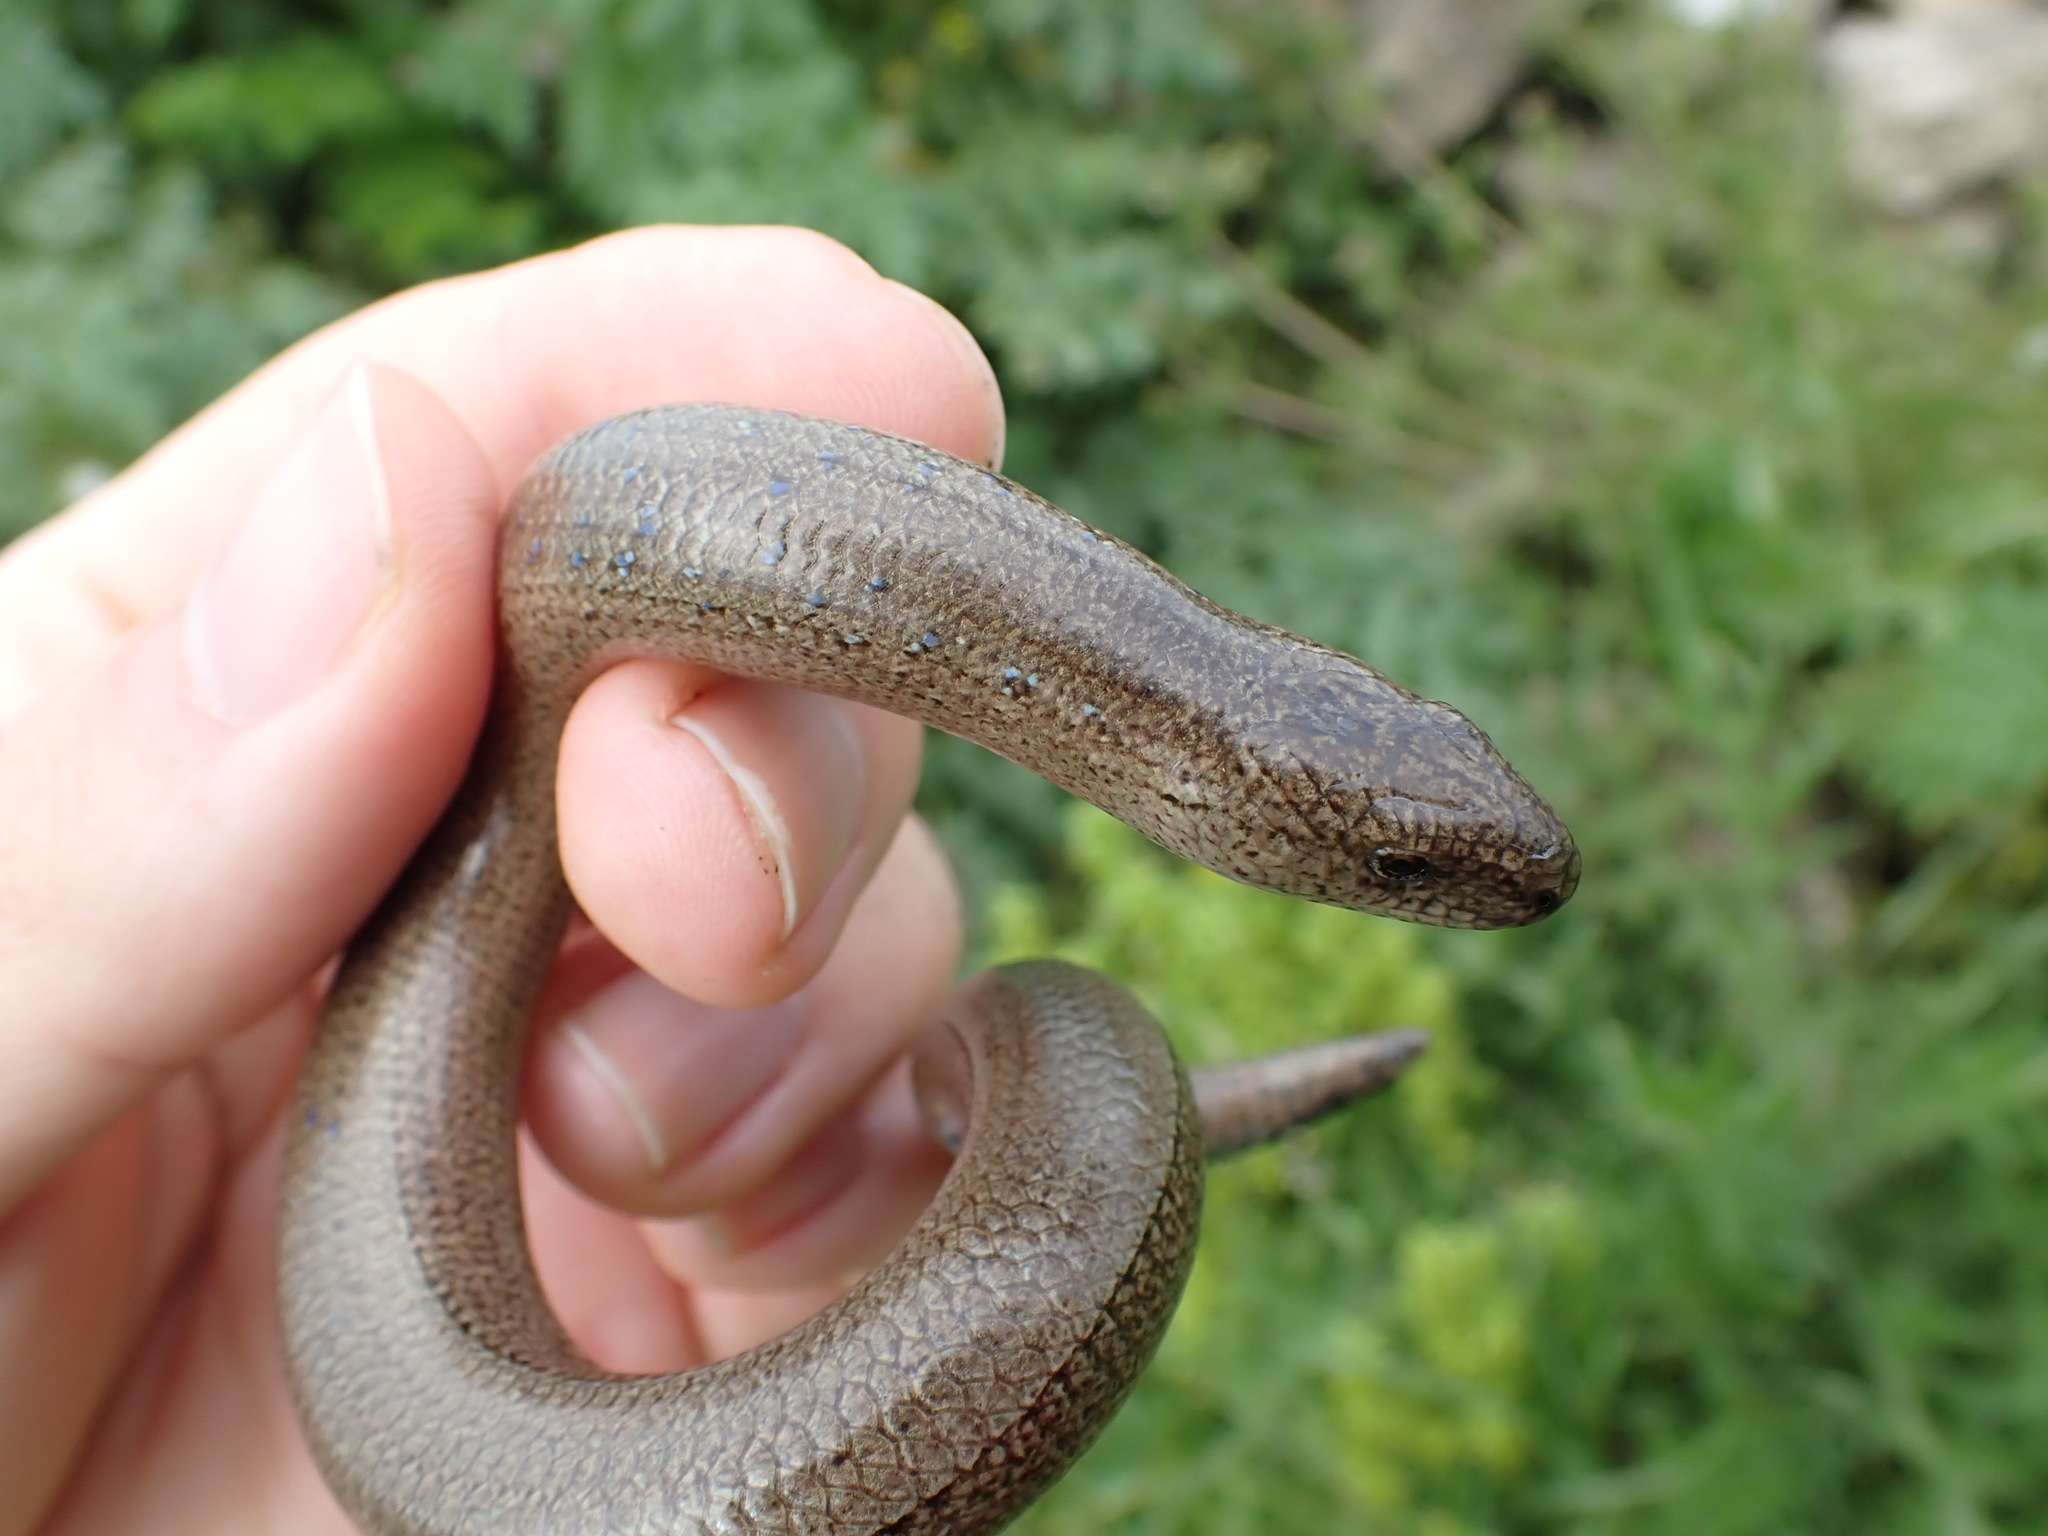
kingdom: Animalia
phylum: Chordata
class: Squamata
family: Anguidae
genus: Anguis
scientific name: Anguis fragilis
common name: Slow worm
